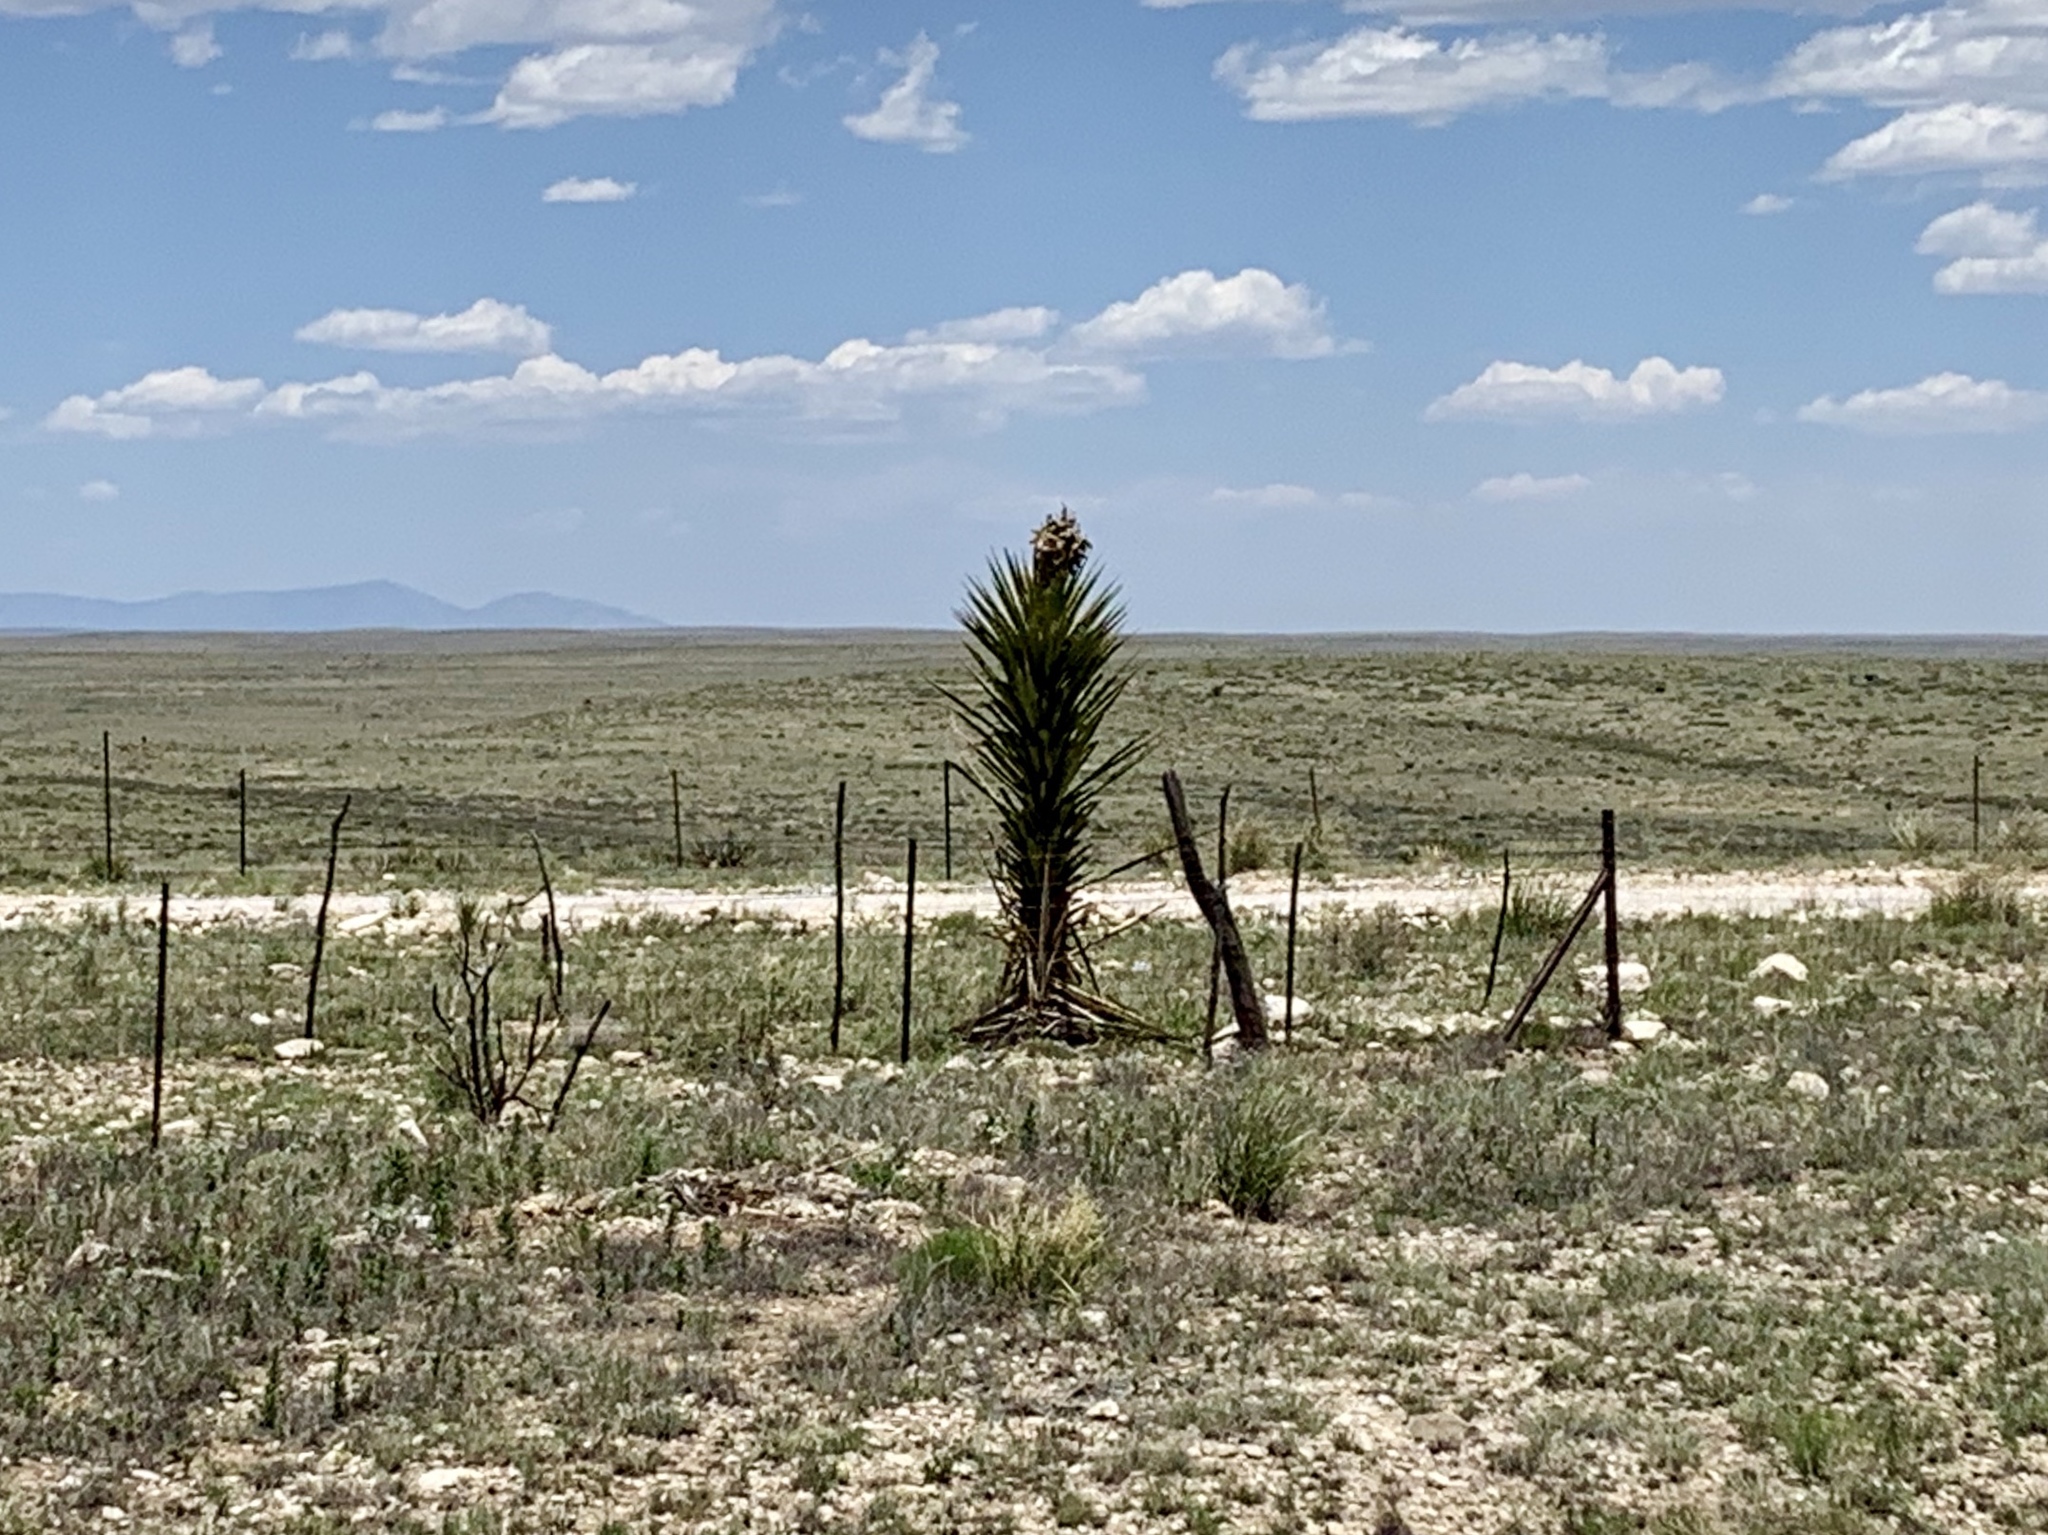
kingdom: Plantae
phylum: Tracheophyta
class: Liliopsida
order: Asparagales
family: Asparagaceae
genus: Yucca
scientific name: Yucca treculiana
